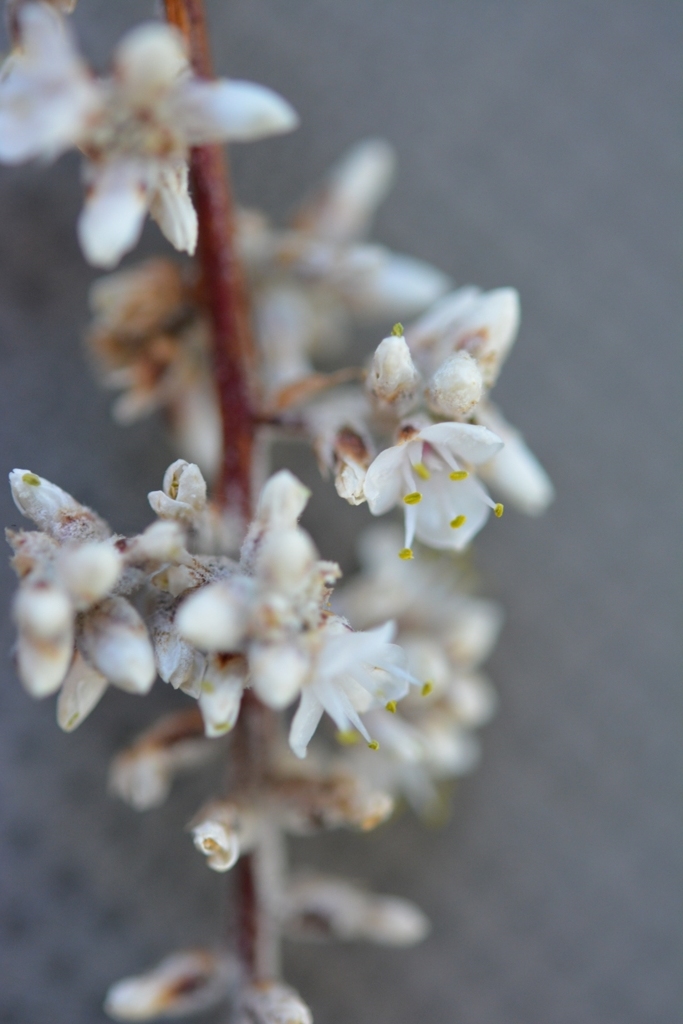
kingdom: Plantae
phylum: Tracheophyta
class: Liliopsida
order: Poales
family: Bromeliaceae
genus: Hechtia
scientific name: Hechtia glomerata
